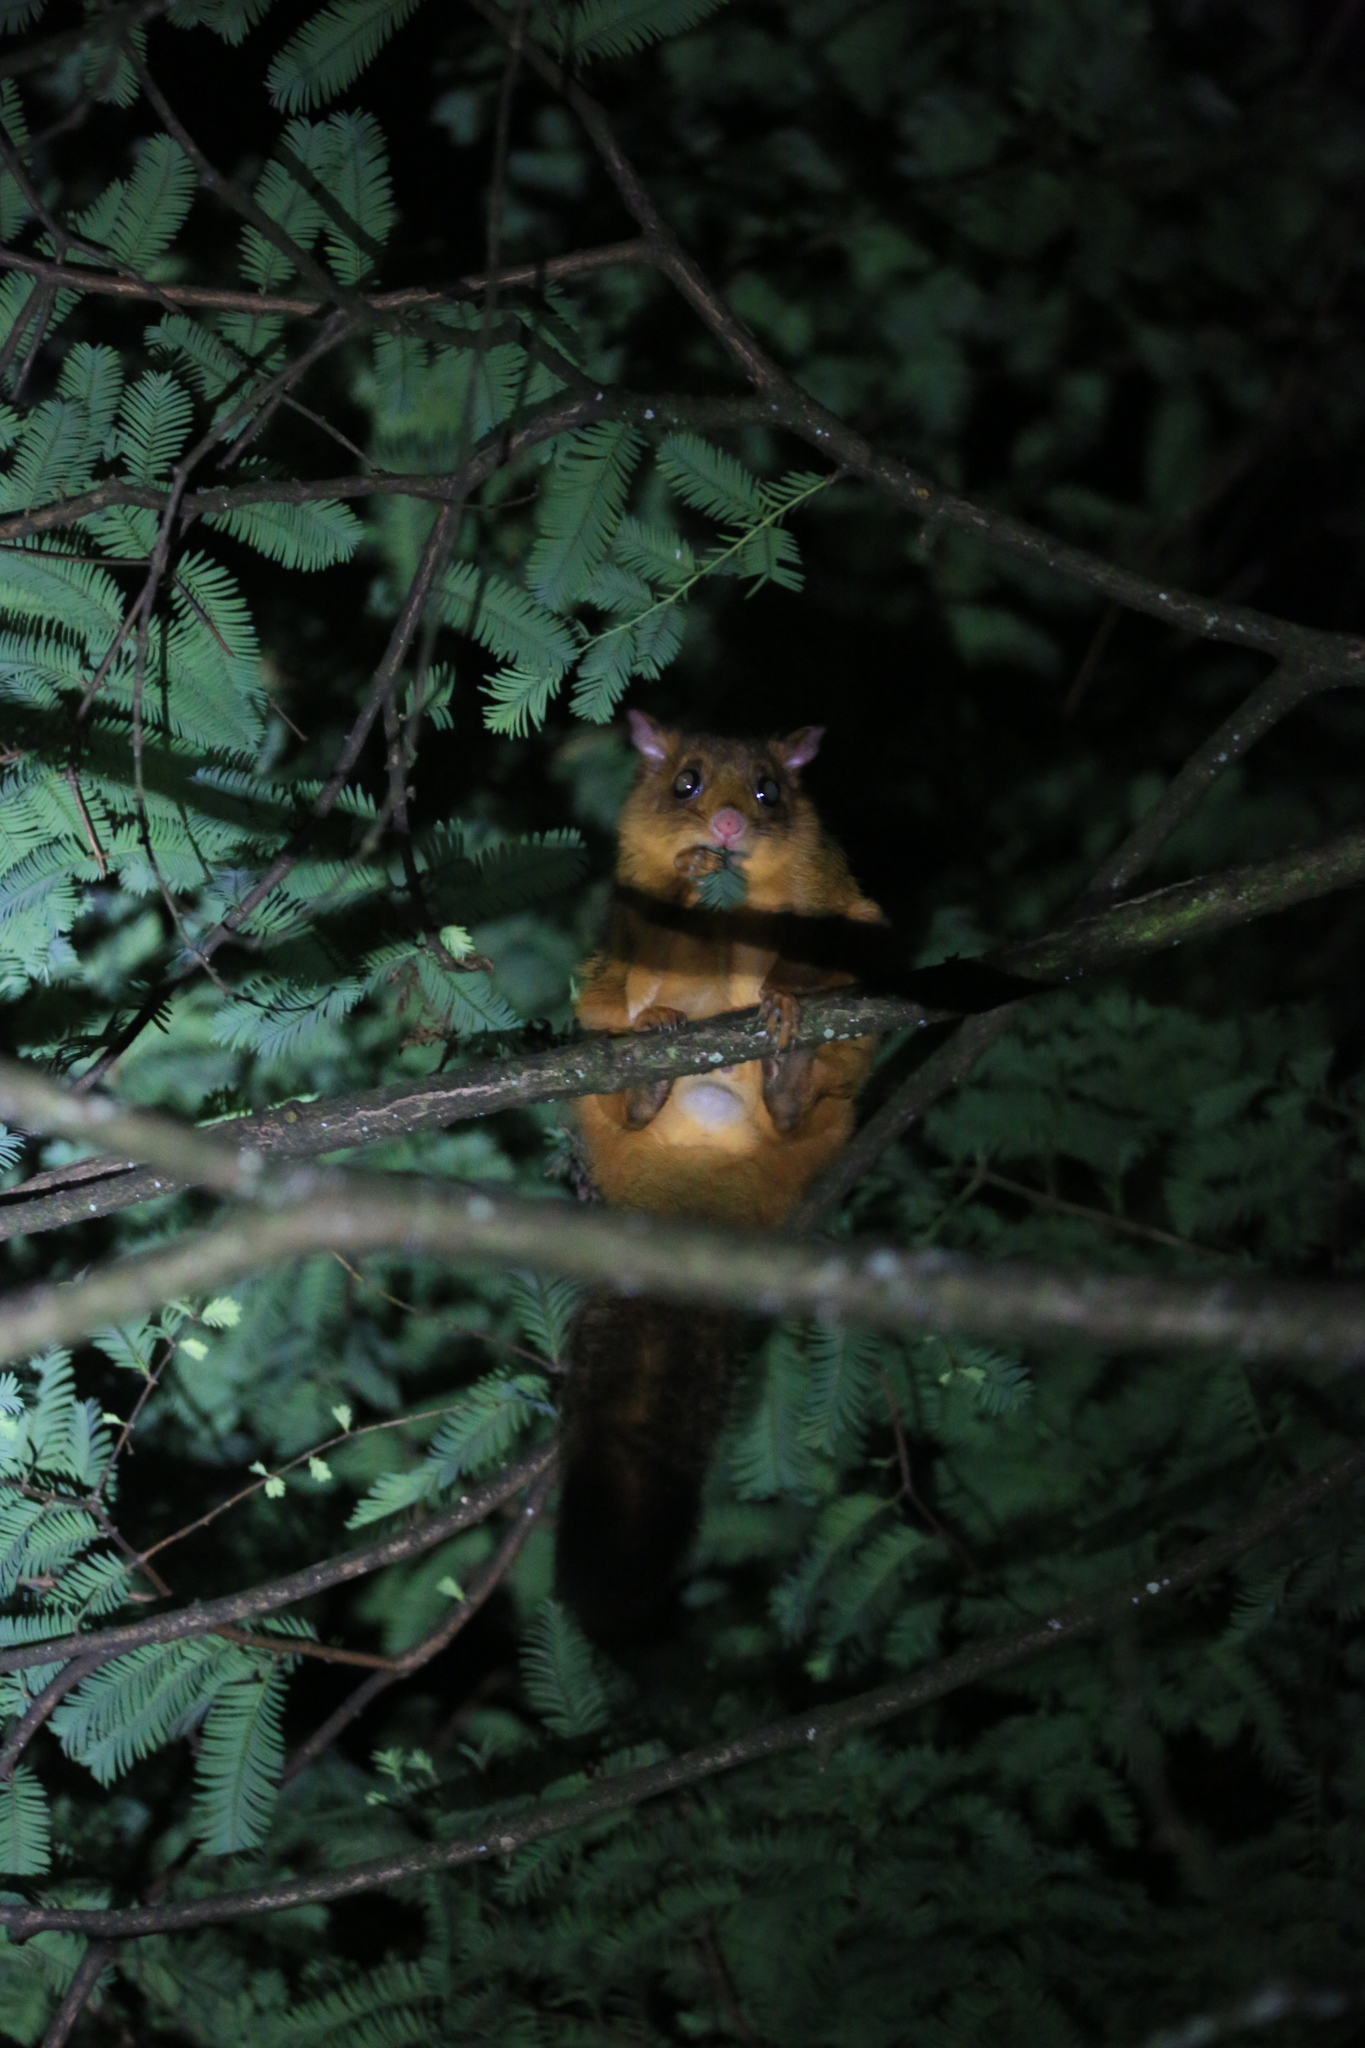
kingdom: Animalia
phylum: Chordata
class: Mammalia
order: Rodentia
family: Sciuridae
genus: Petaurista
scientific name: Petaurista
